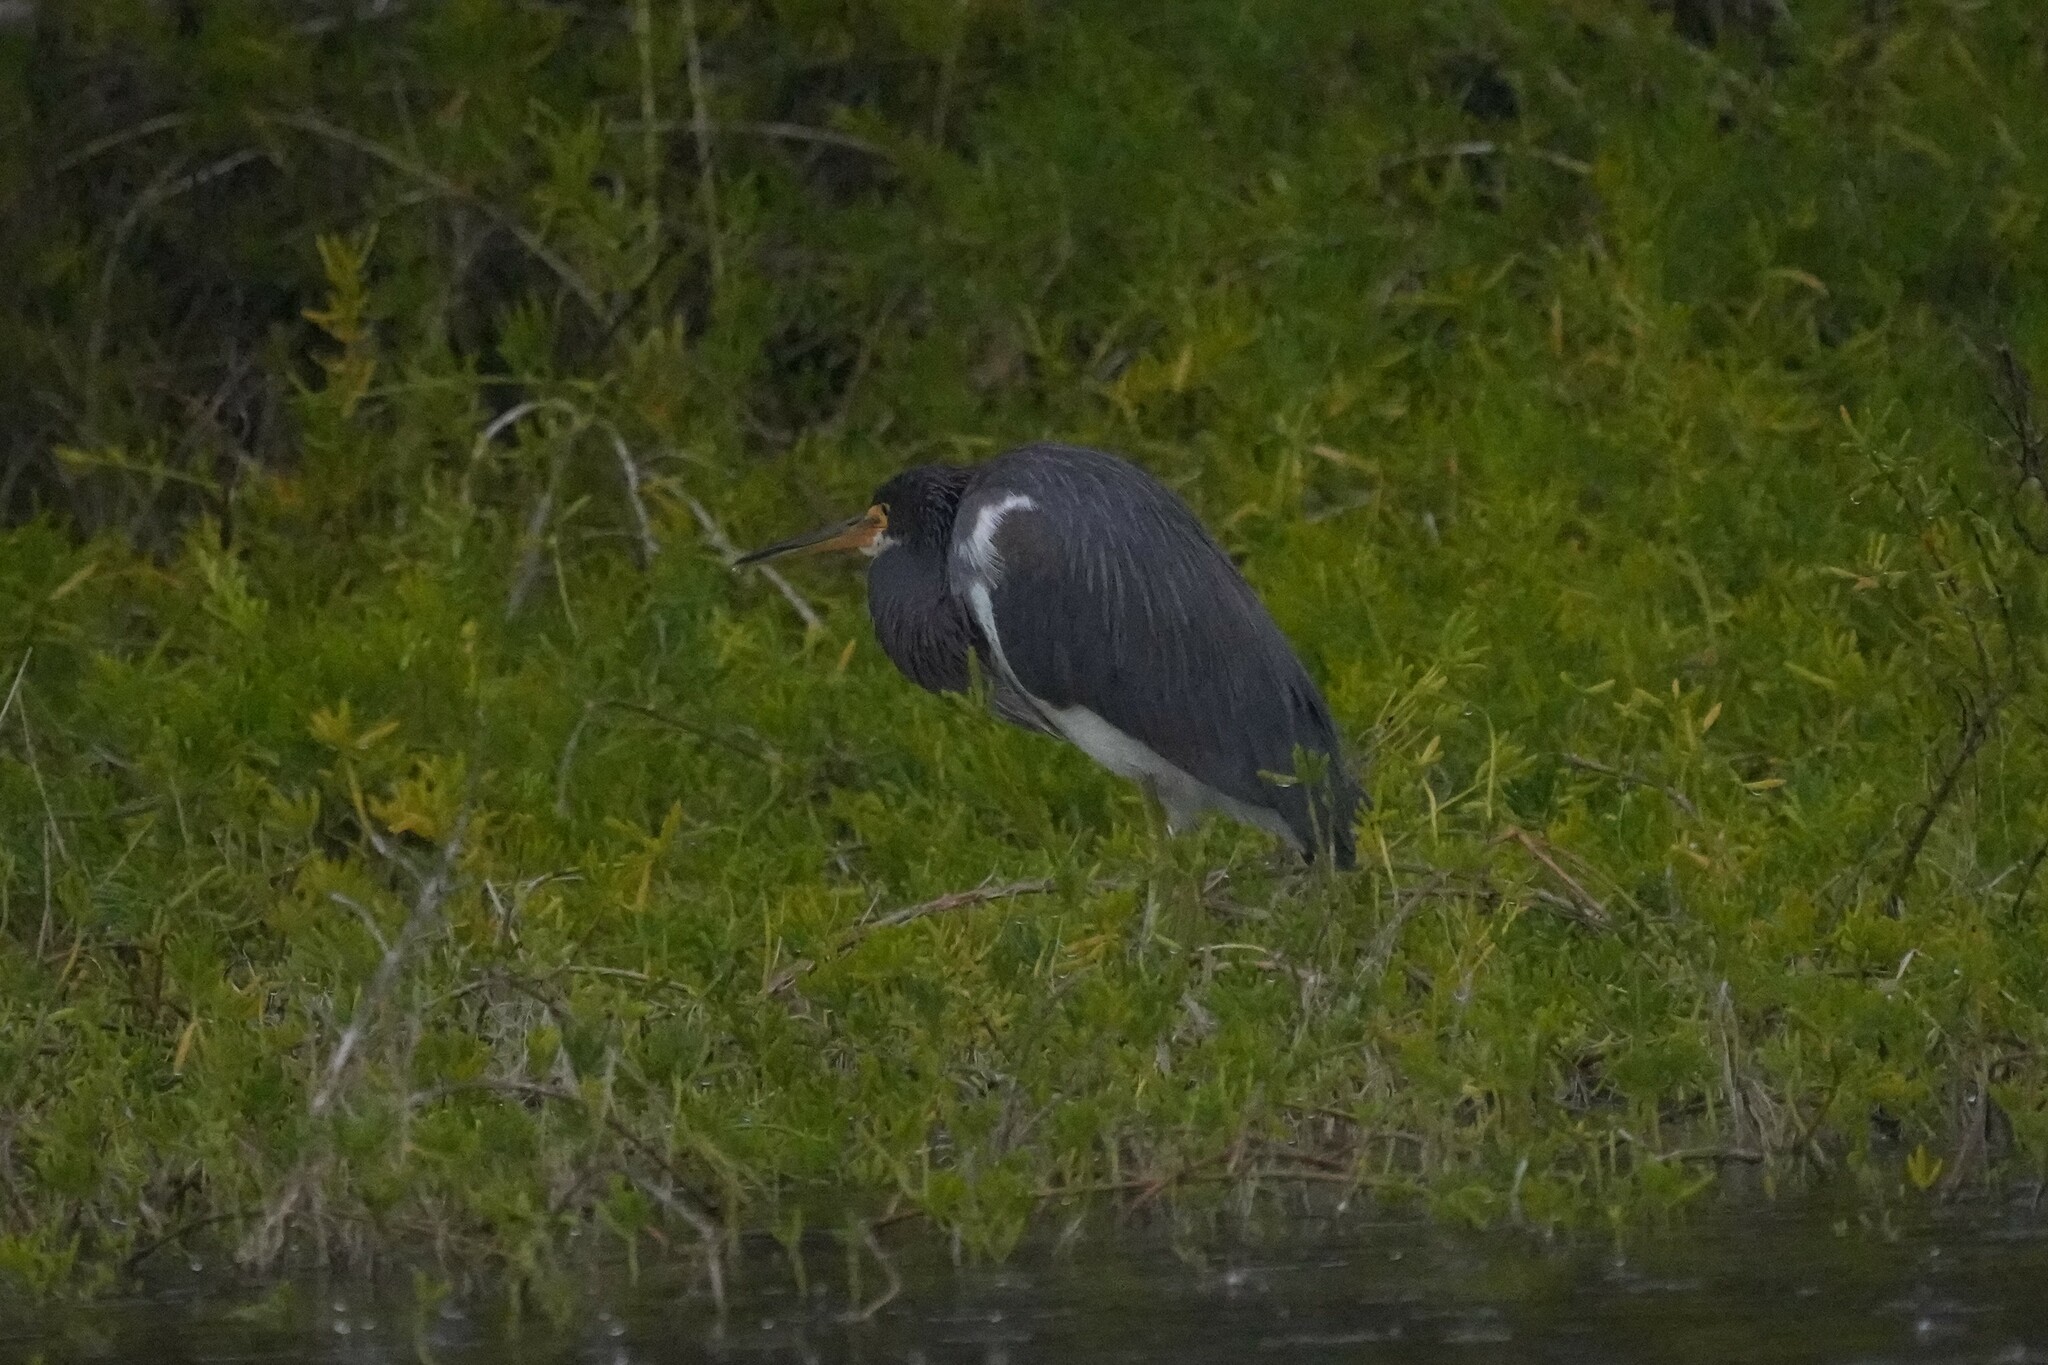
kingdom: Animalia
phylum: Chordata
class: Aves
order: Pelecaniformes
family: Ardeidae
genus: Egretta
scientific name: Egretta tricolor
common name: Tricolored heron
